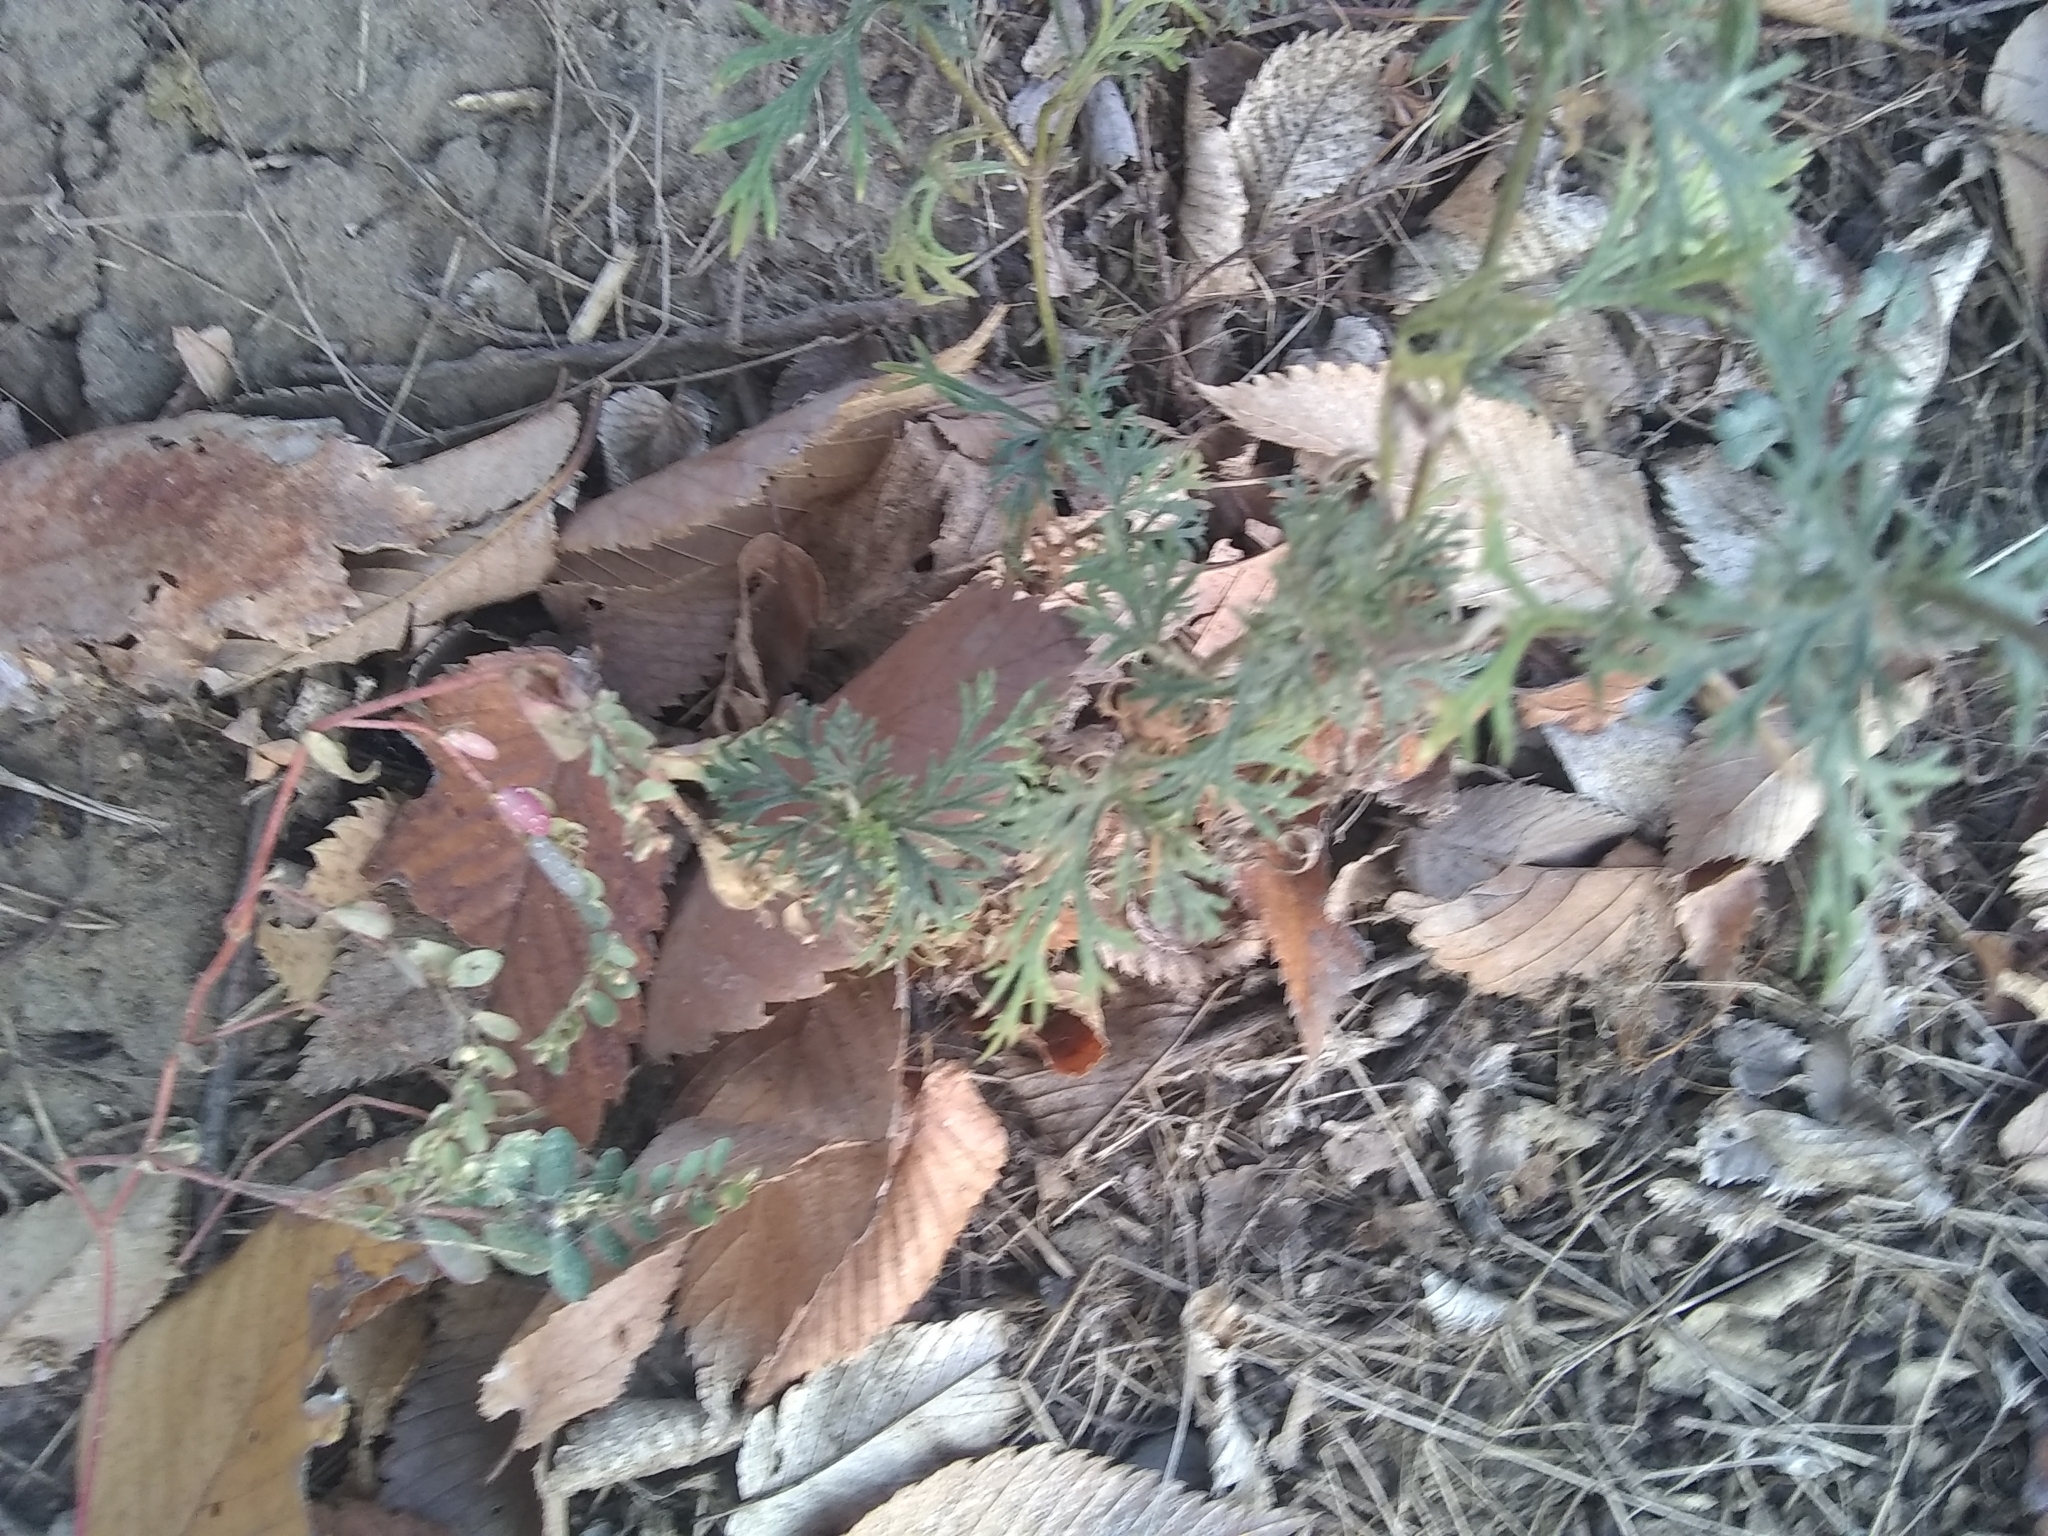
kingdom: Plantae
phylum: Tracheophyta
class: Magnoliopsida
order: Lamiales
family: Verbenaceae
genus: Verbena
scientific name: Verbena bipinnatifida
